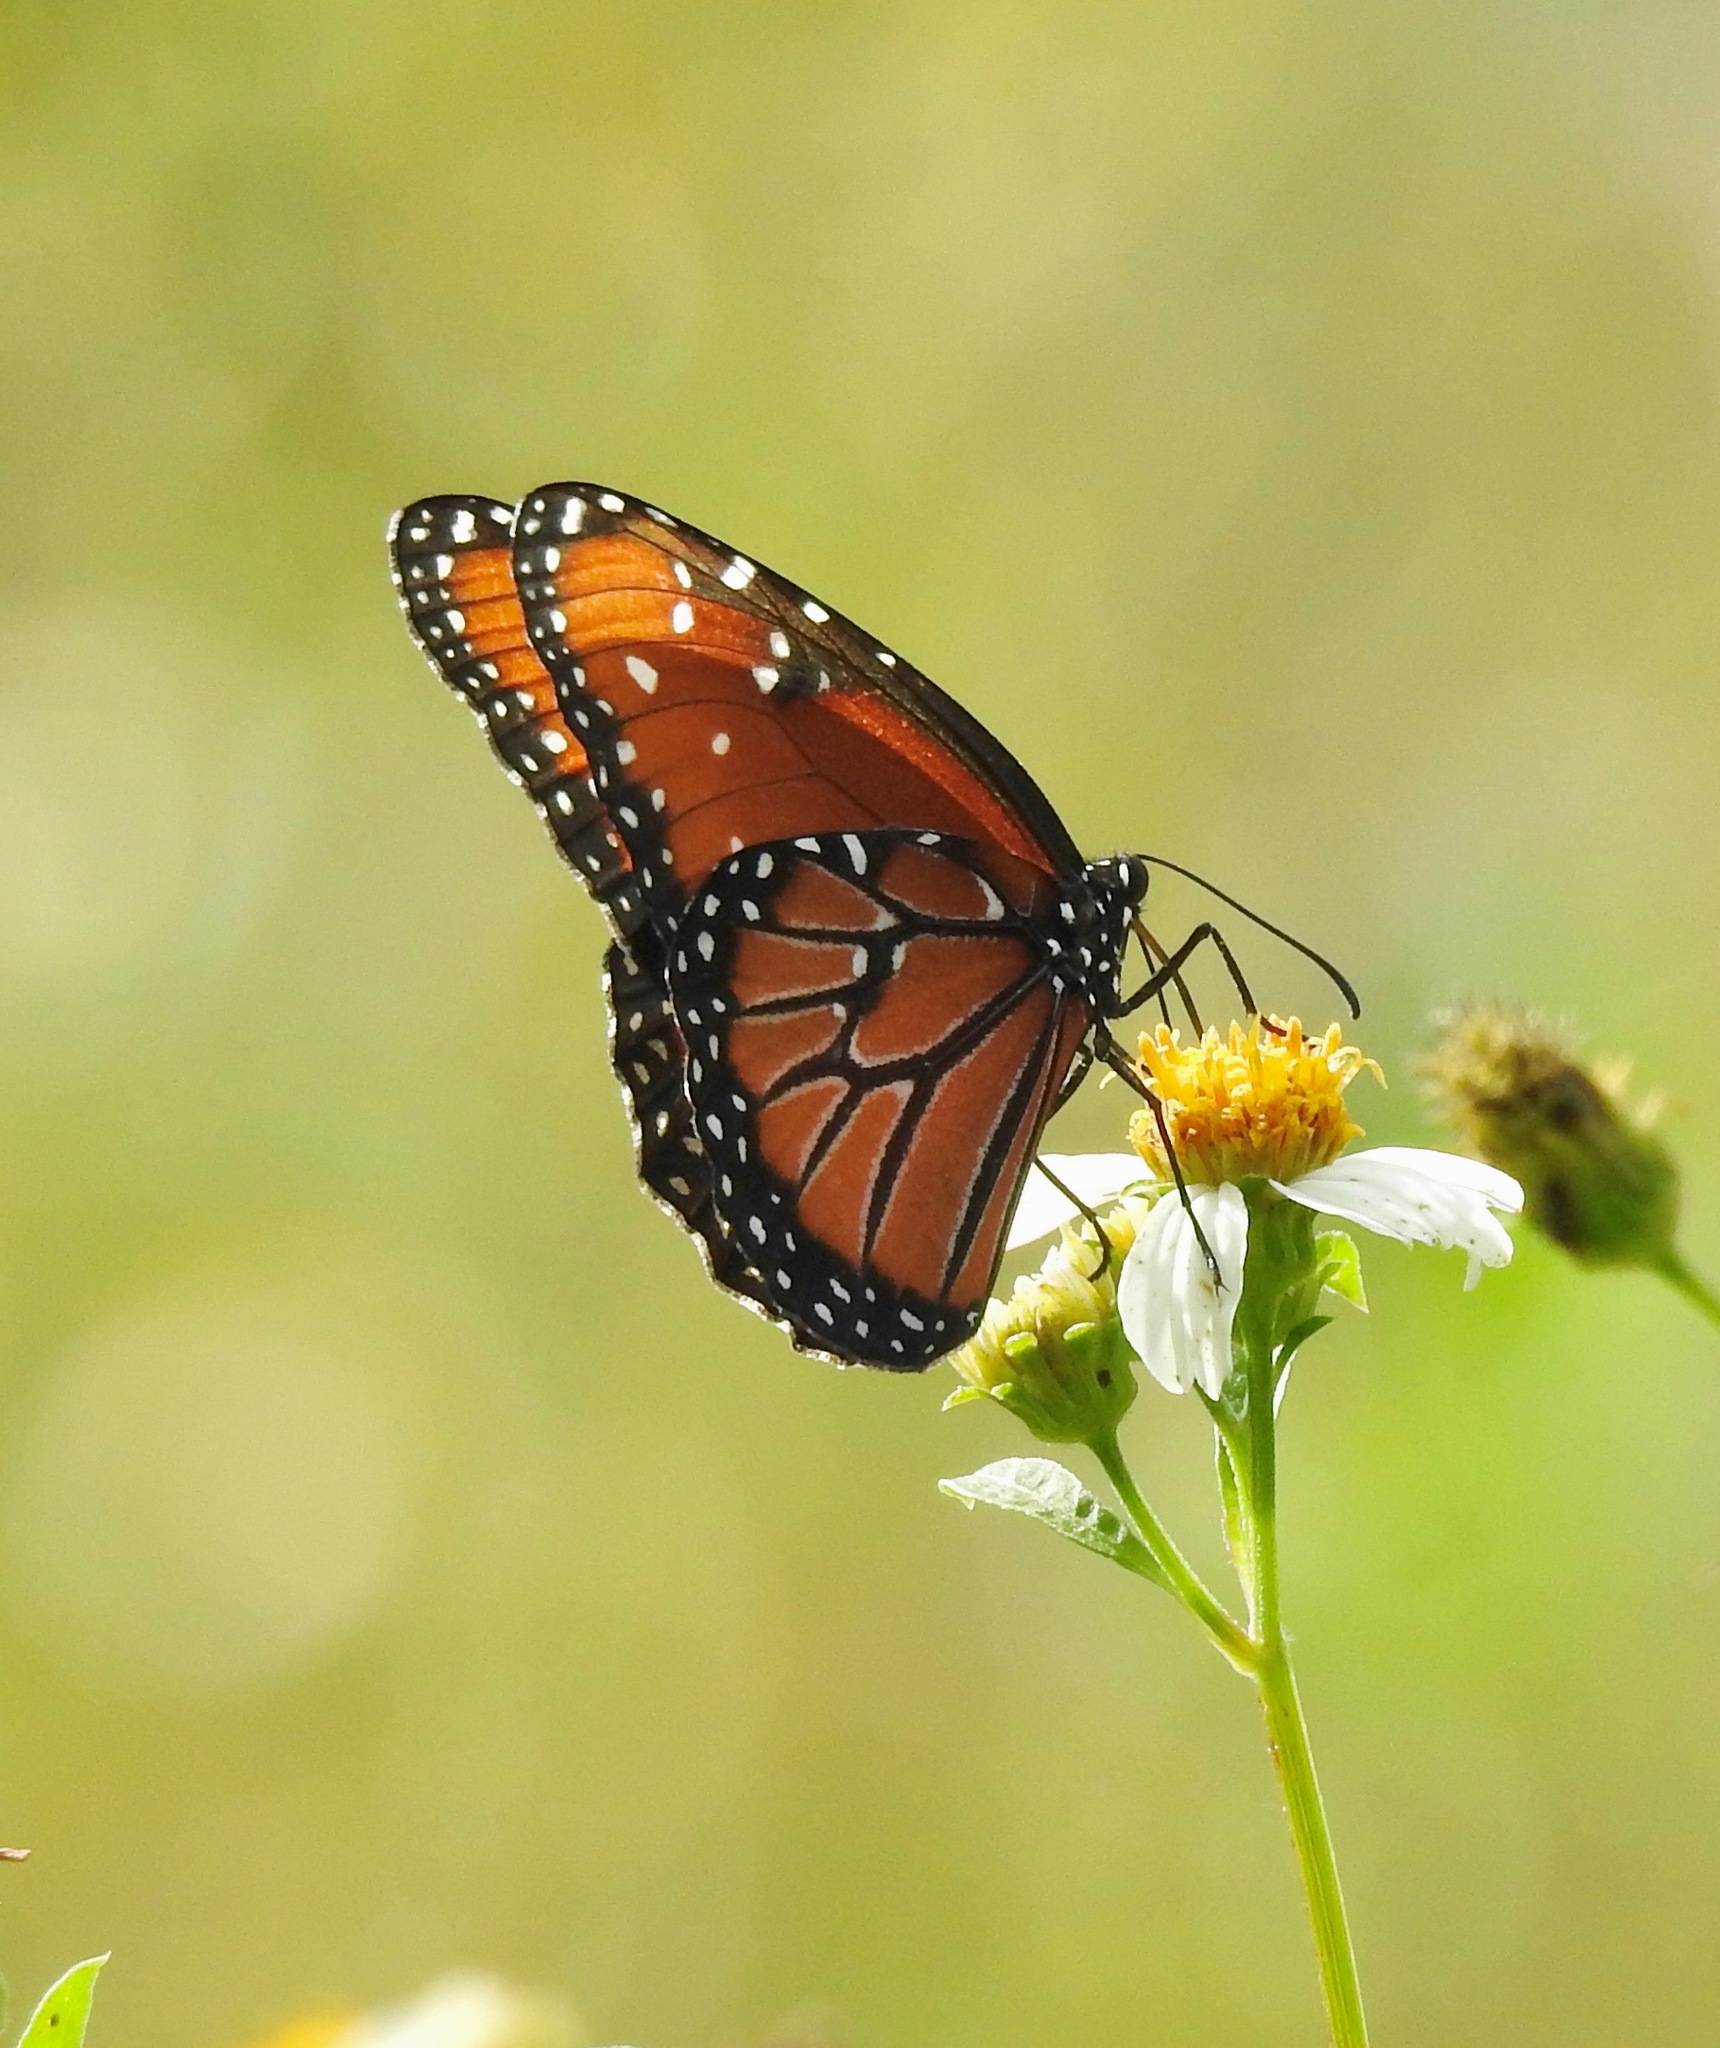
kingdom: Animalia
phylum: Arthropoda
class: Insecta
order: Lepidoptera
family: Nymphalidae
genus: Danaus
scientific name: Danaus gilippus
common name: Queen
